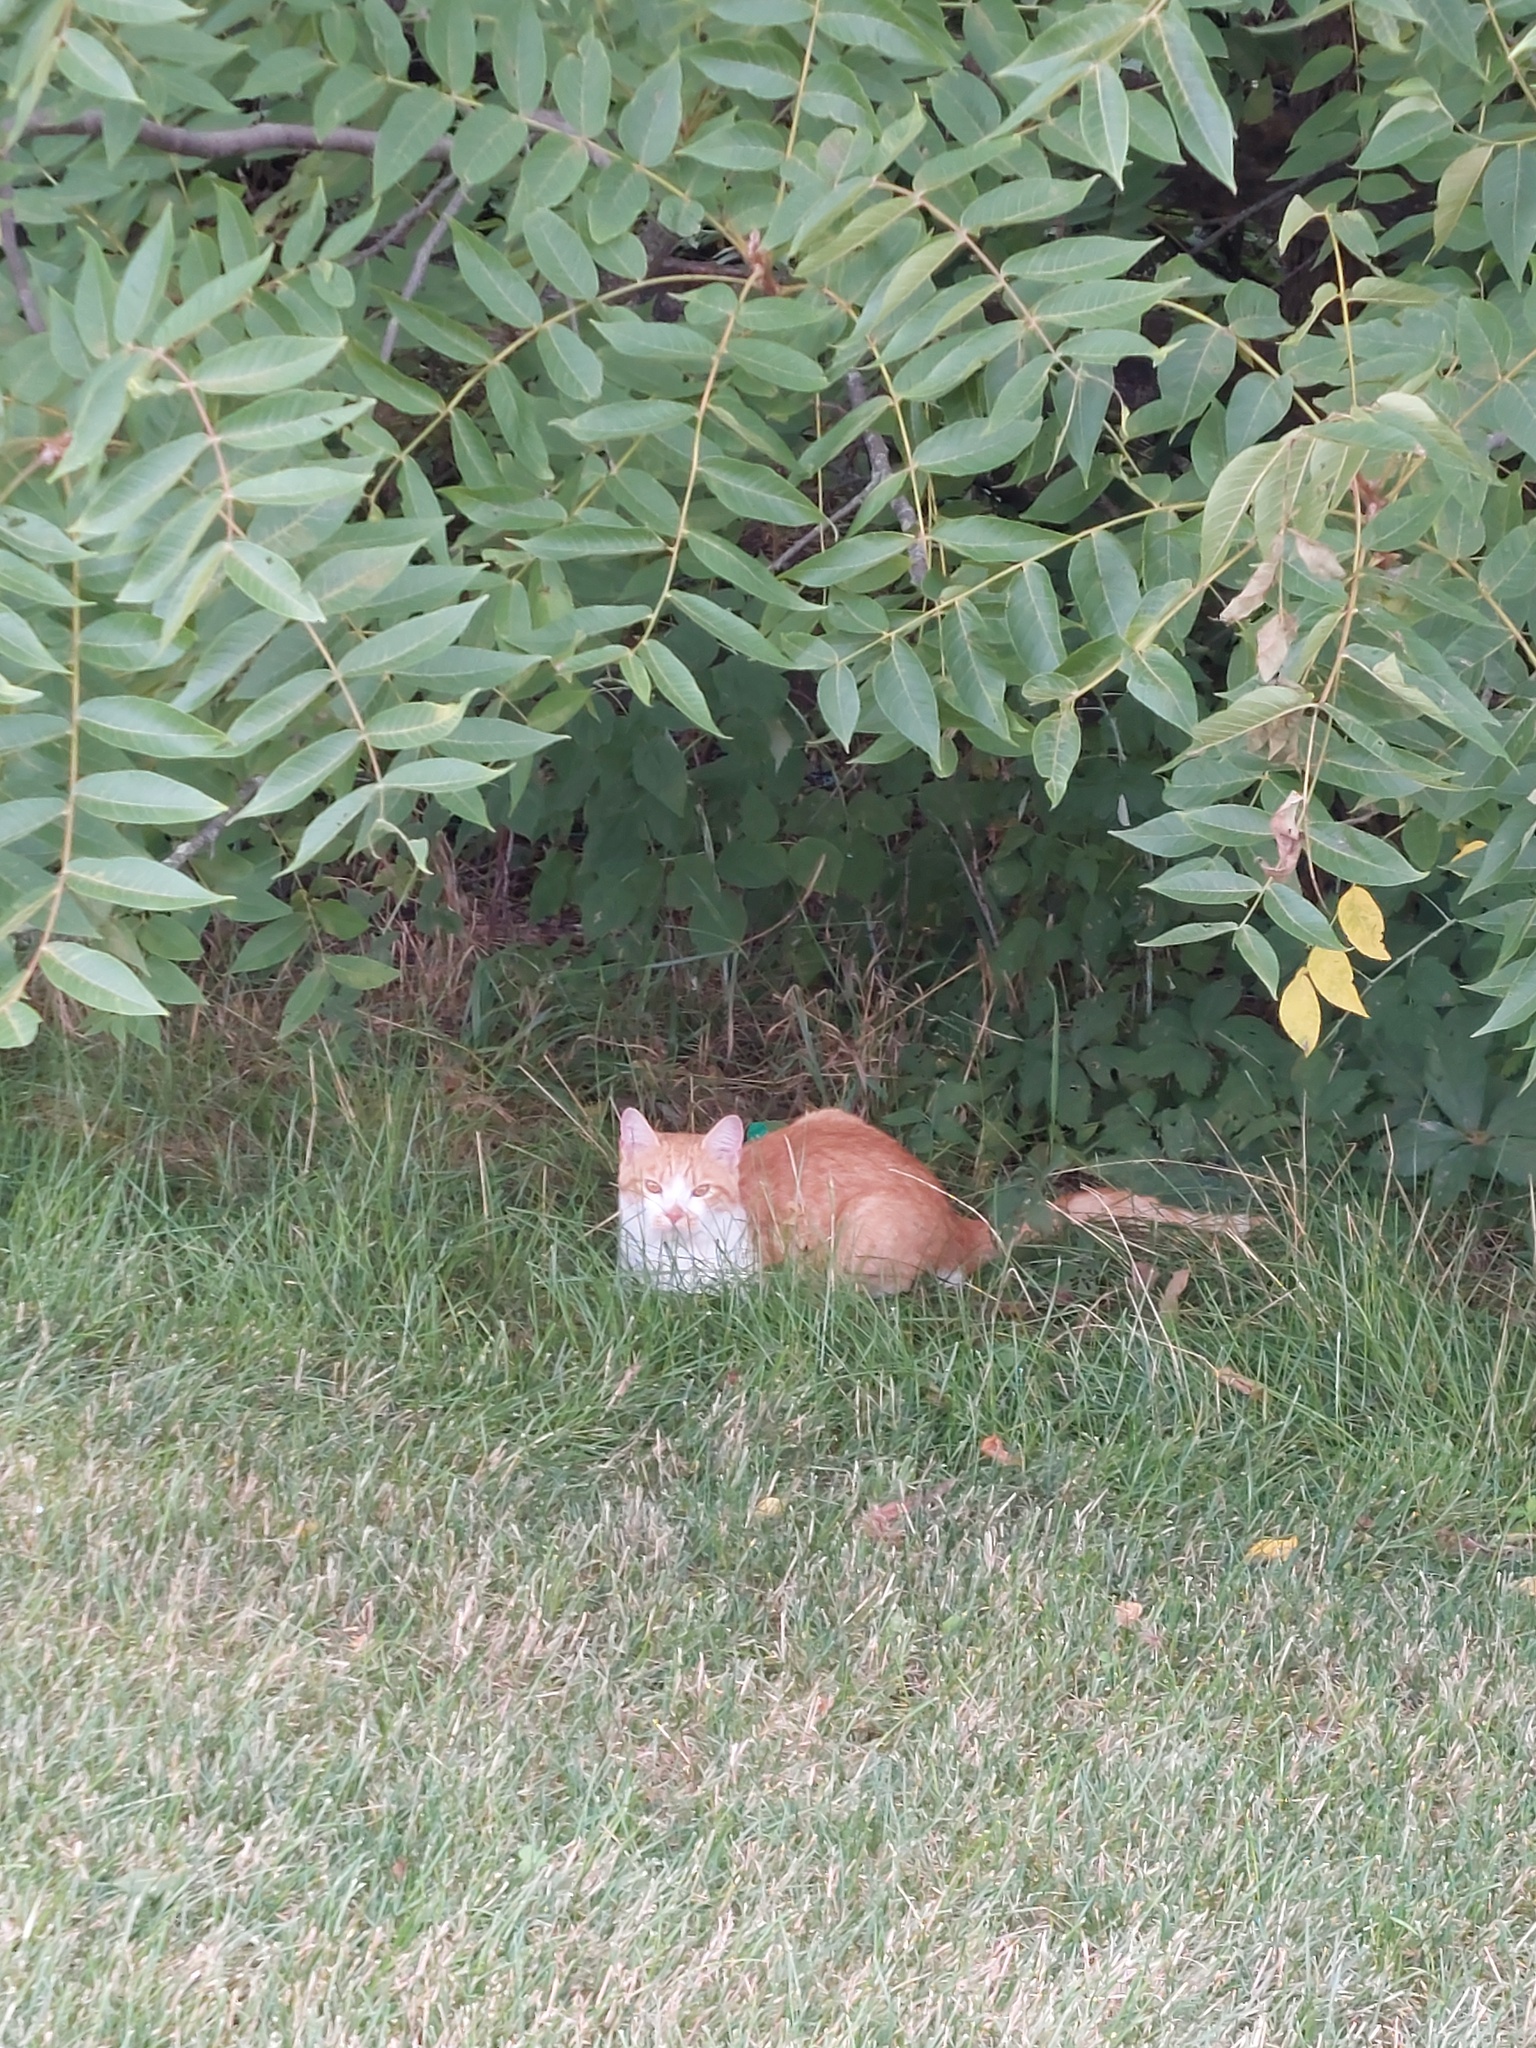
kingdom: Animalia
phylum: Chordata
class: Mammalia
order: Carnivora
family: Felidae
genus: Felis
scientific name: Felis catus
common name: Domestic cat
